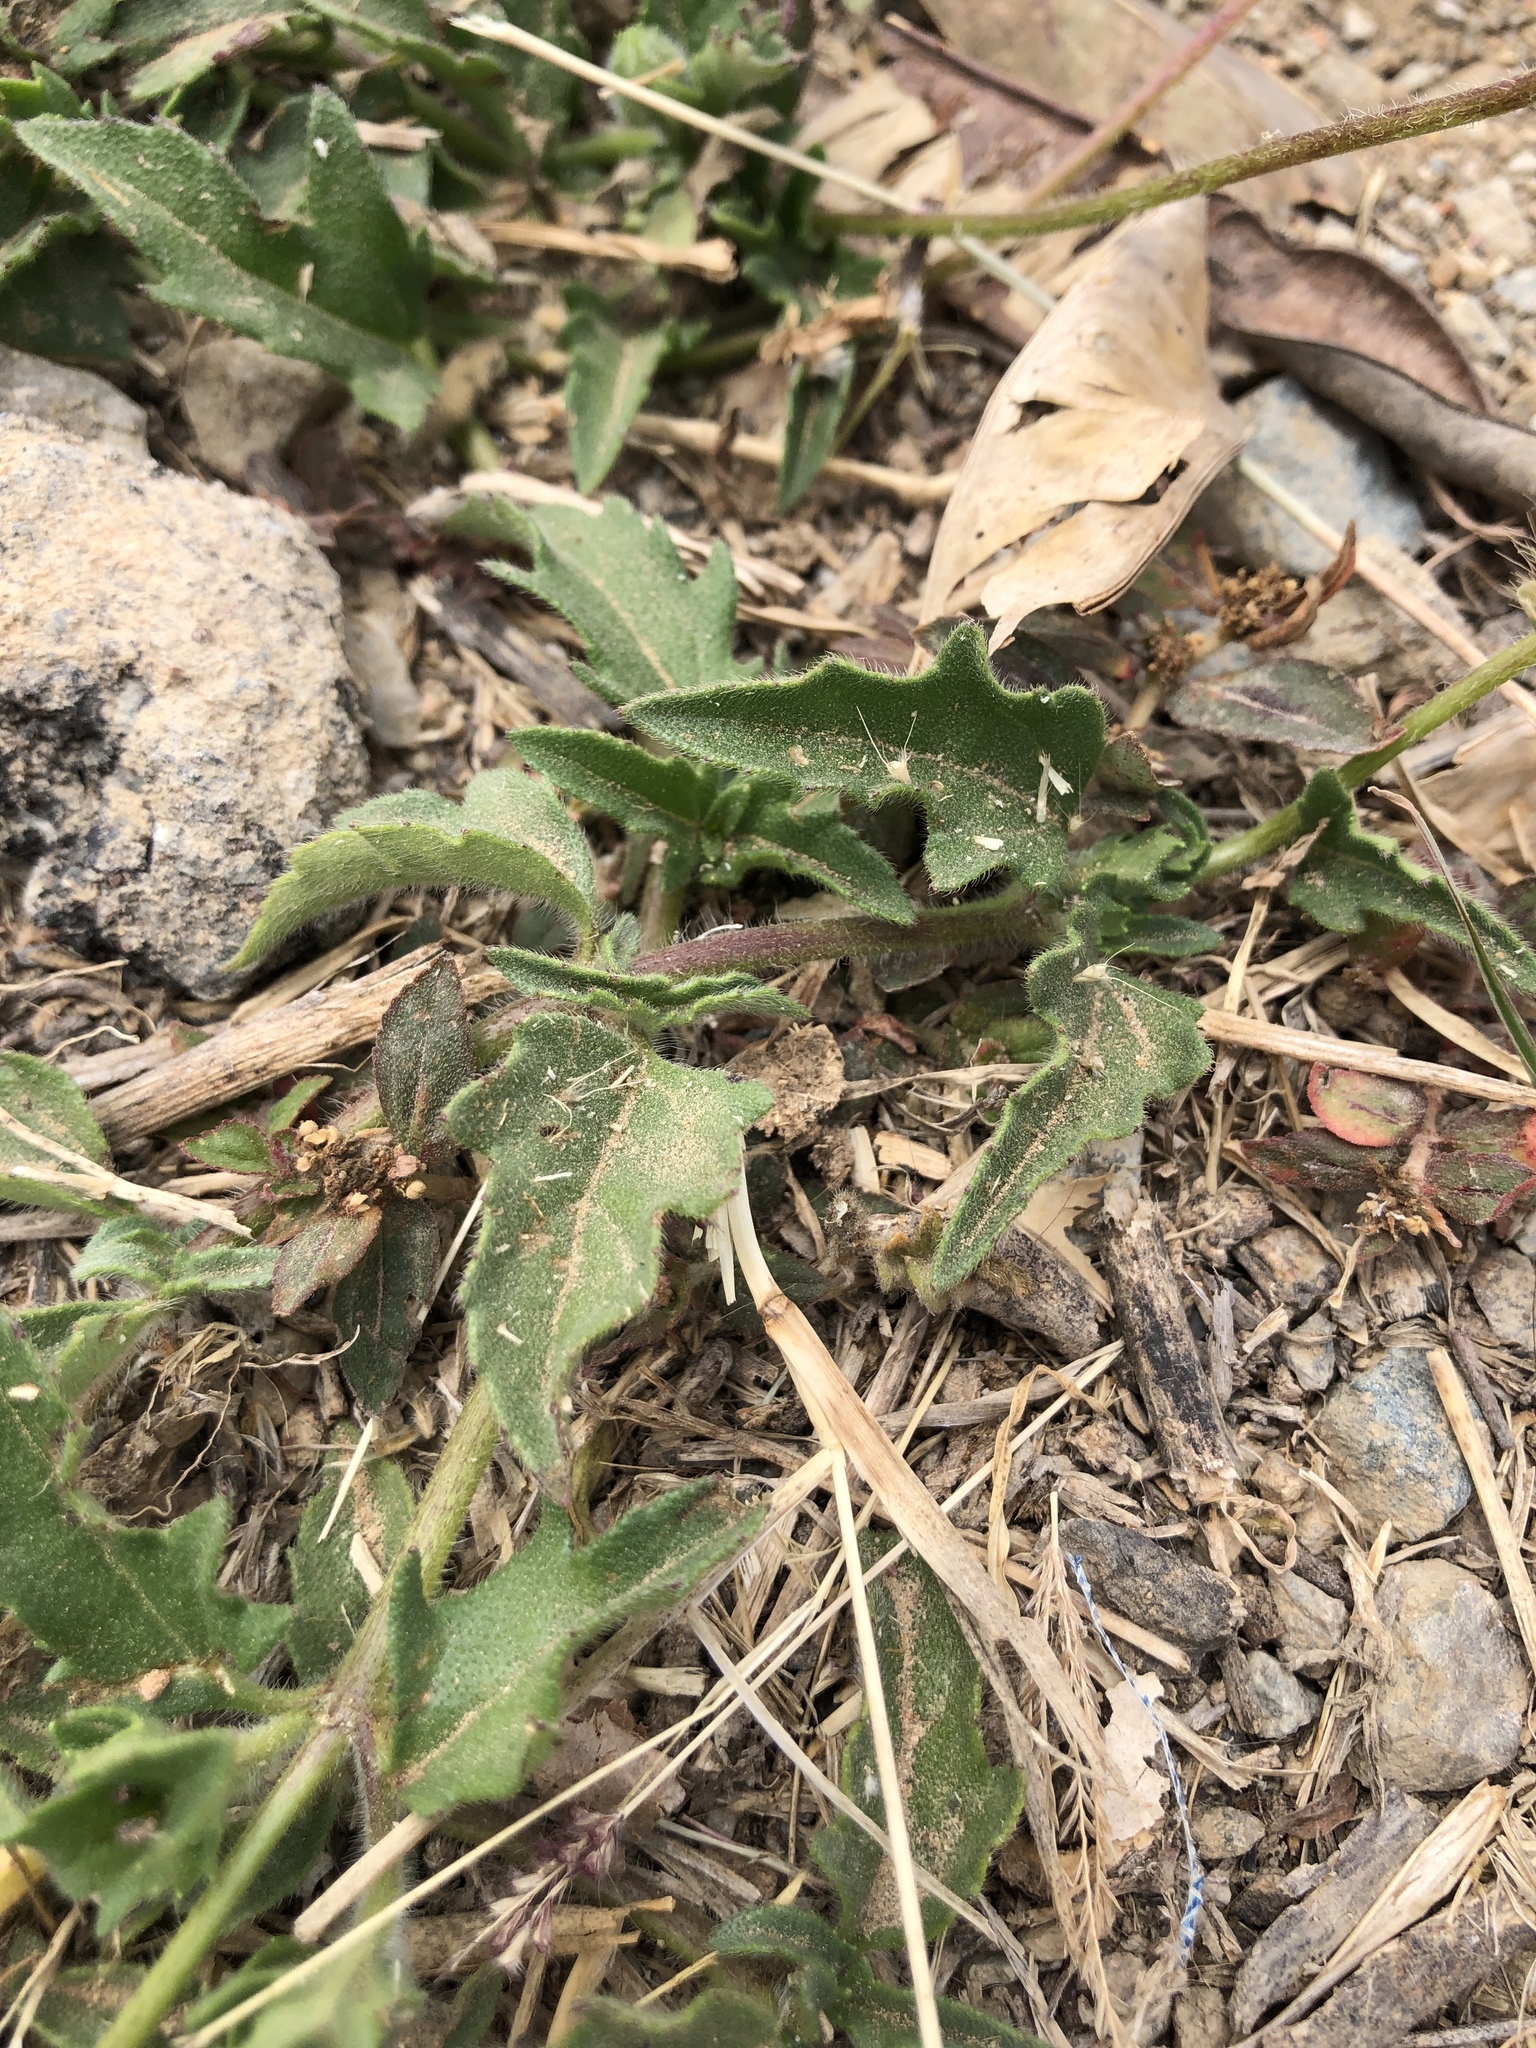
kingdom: Plantae
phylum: Tracheophyta
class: Magnoliopsida
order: Asterales
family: Asteraceae
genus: Tridax
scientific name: Tridax procumbens
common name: Coatbuttons
